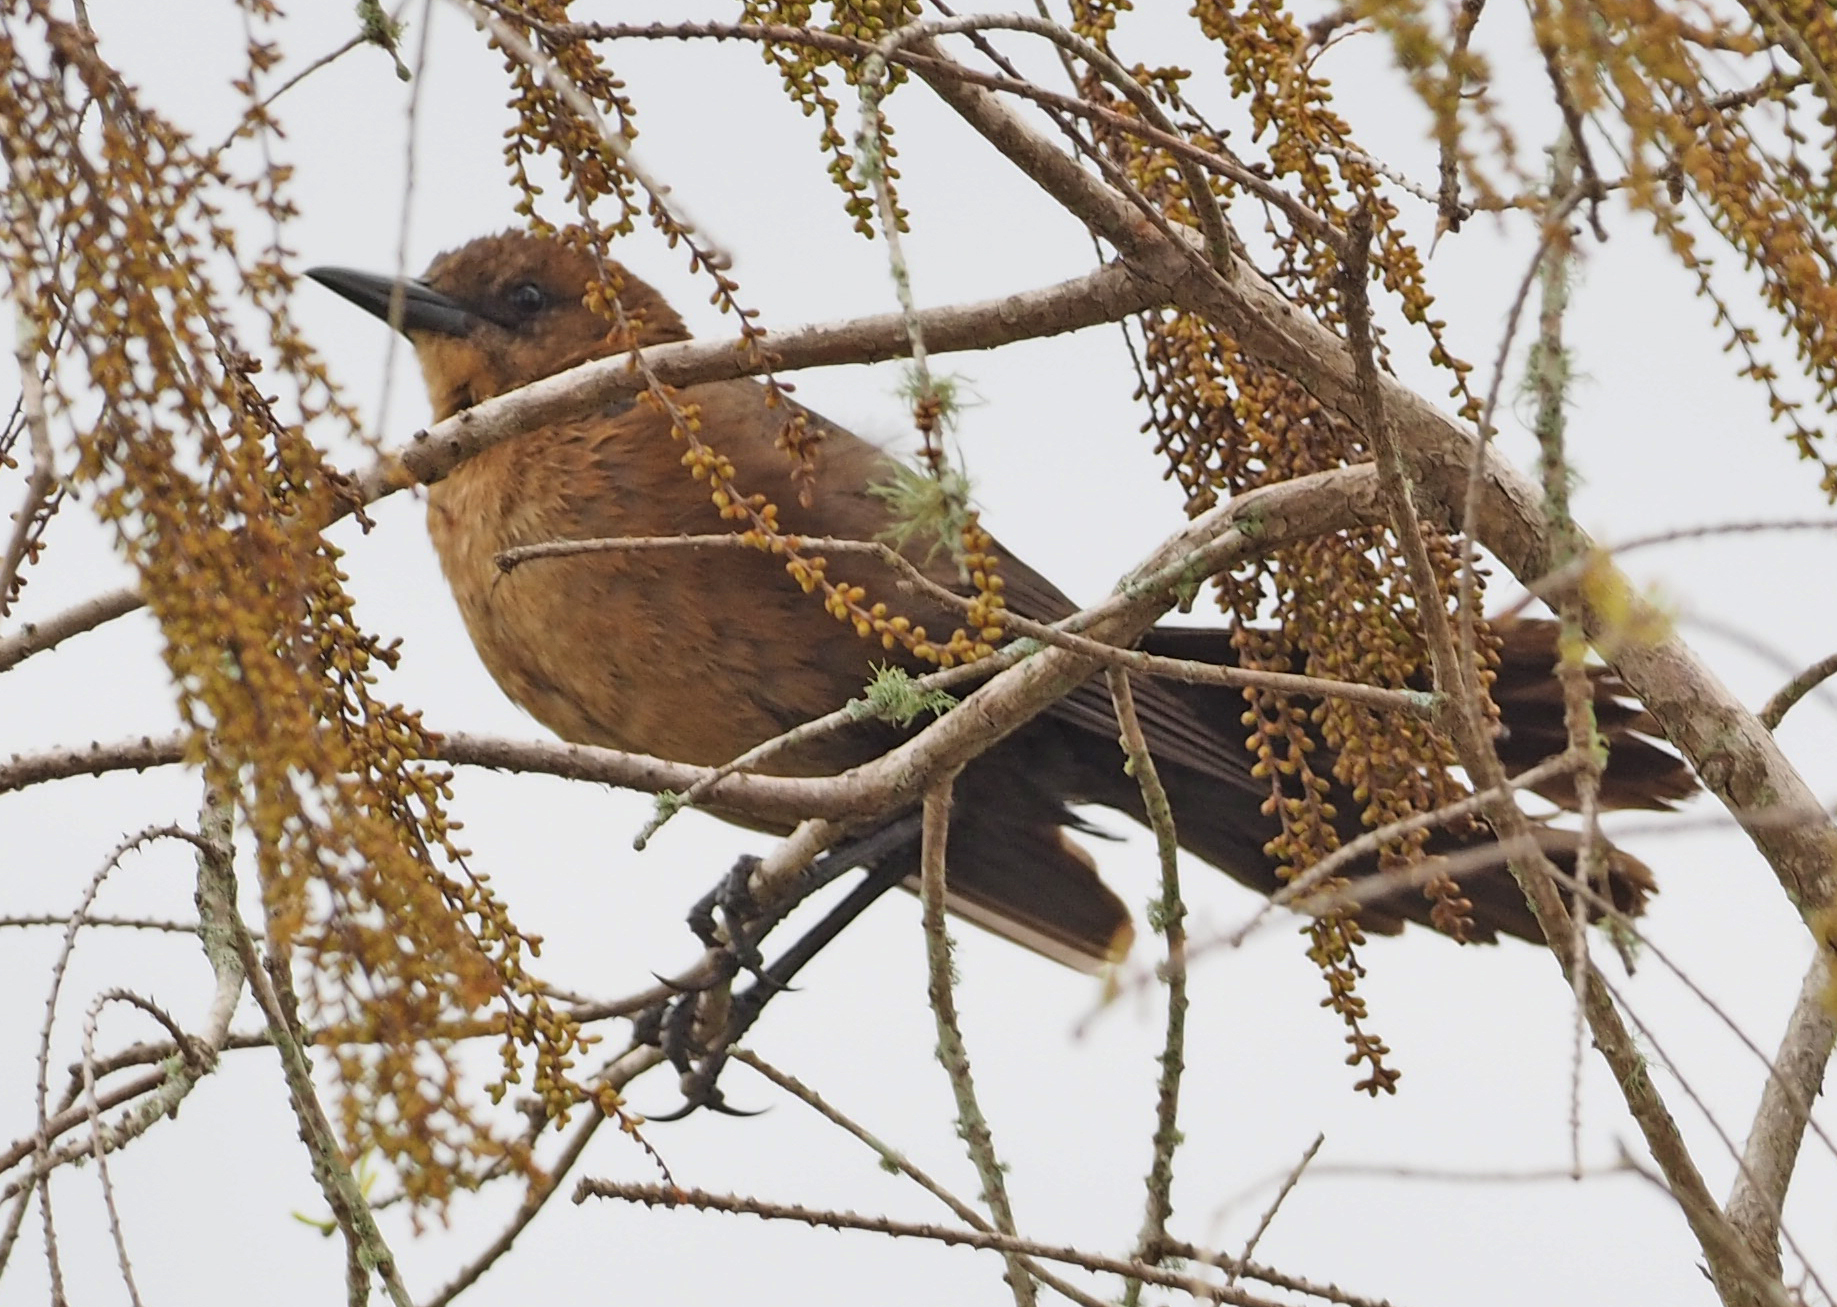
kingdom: Animalia
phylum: Chordata
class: Aves
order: Passeriformes
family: Icteridae
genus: Quiscalus
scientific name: Quiscalus major
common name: Boat-tailed grackle
